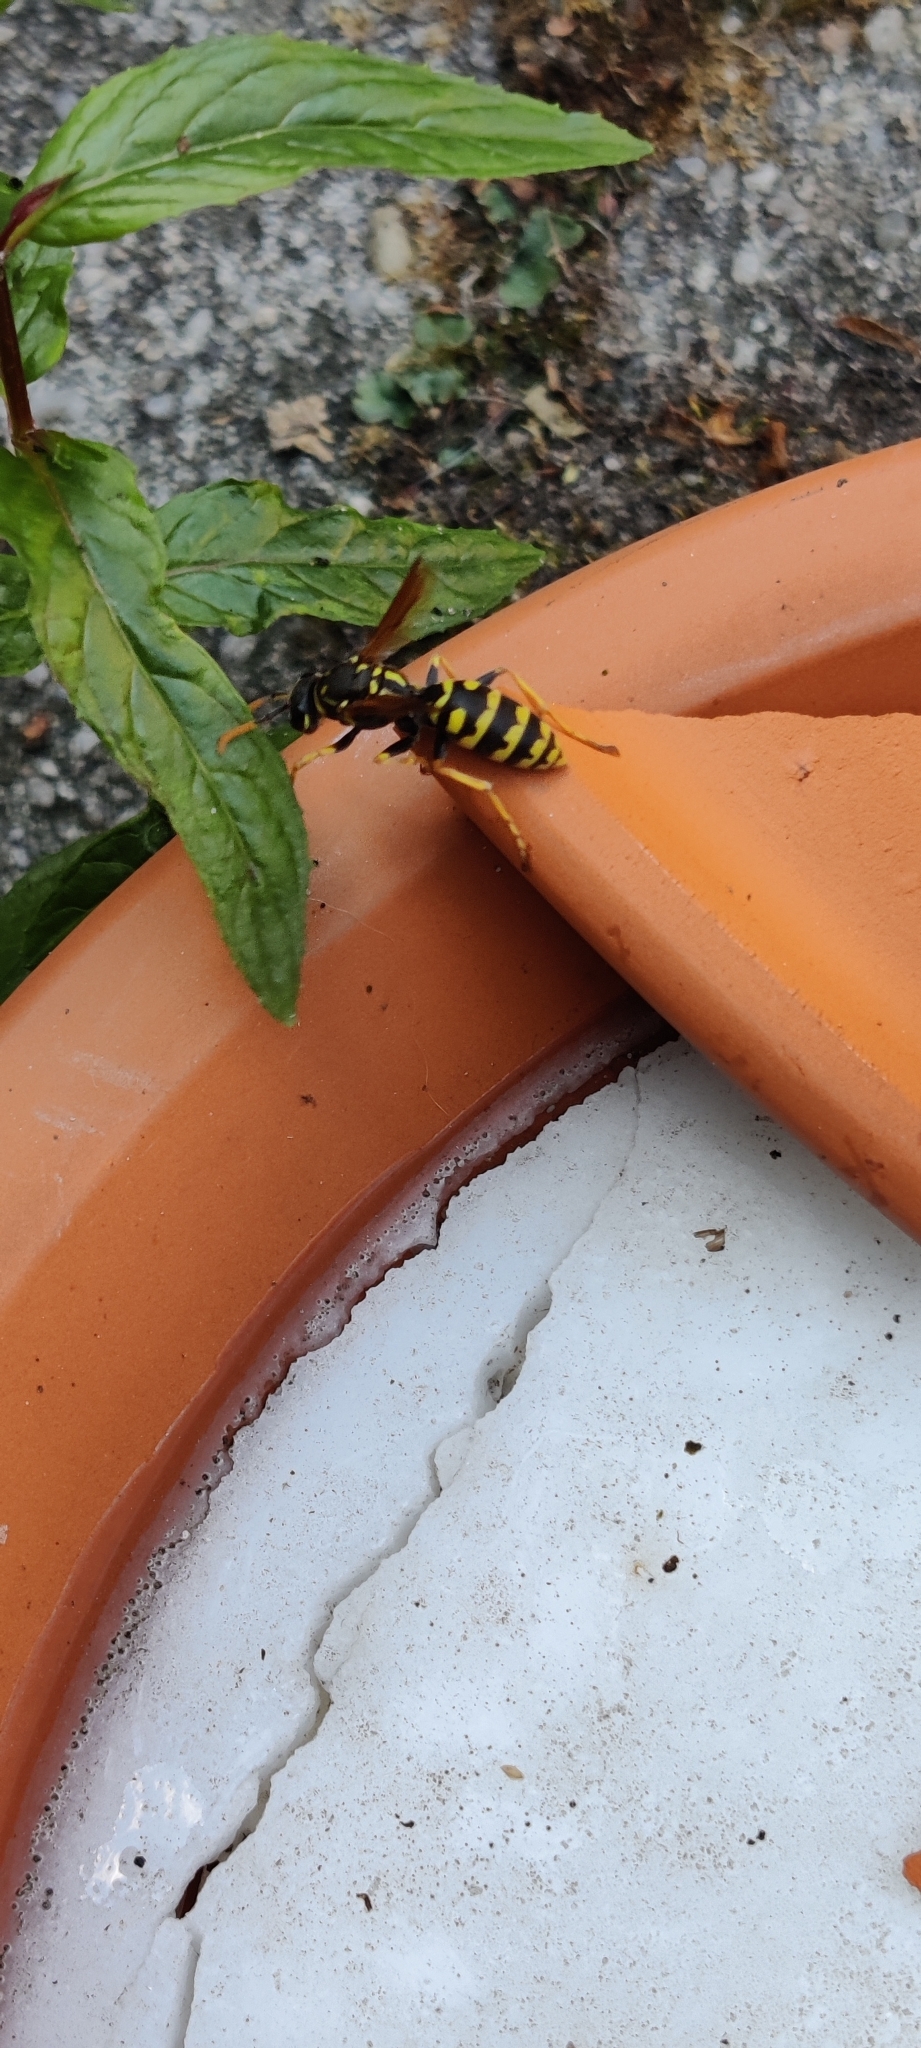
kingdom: Animalia
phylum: Arthropoda
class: Insecta
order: Hymenoptera
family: Eumenidae
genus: Polistes
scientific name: Polistes dominula
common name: Paper wasp
